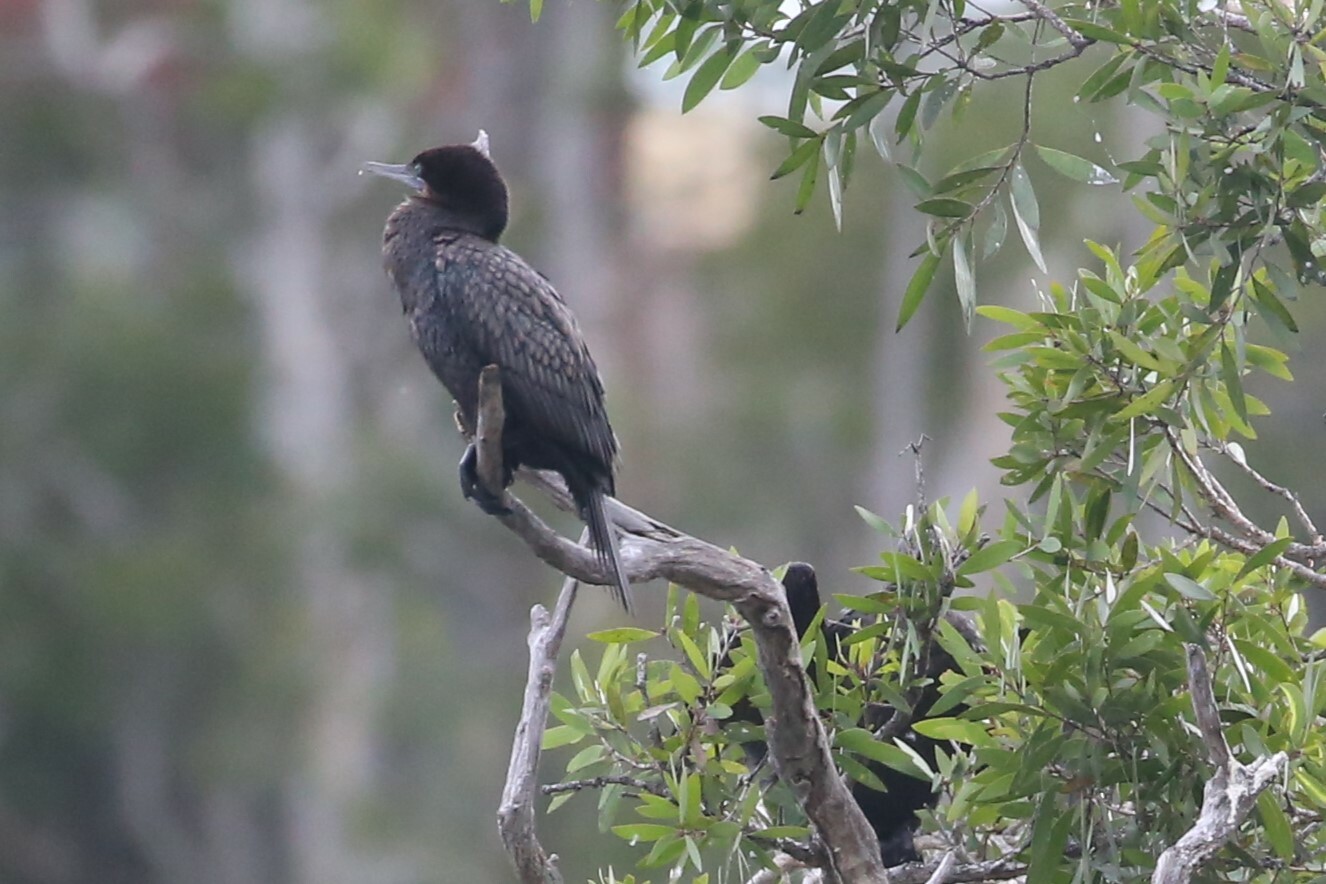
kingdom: Animalia
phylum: Chordata
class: Aves
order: Suliformes
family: Phalacrocoracidae
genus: Phalacrocorax
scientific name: Phalacrocorax sulcirostris
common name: Little black cormorant
